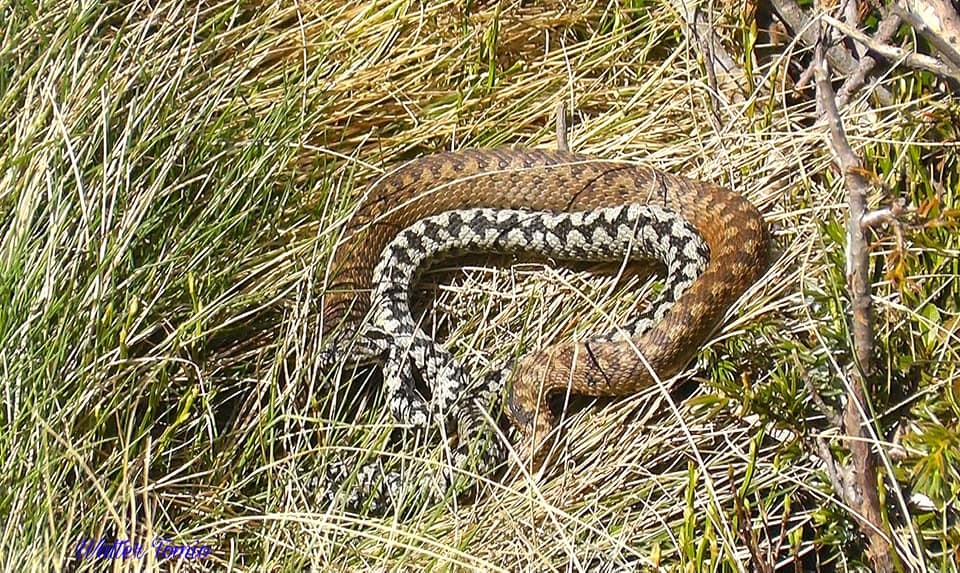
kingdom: Animalia
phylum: Chordata
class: Squamata
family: Viperidae
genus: Vipera
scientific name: Vipera berus
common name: Adder
